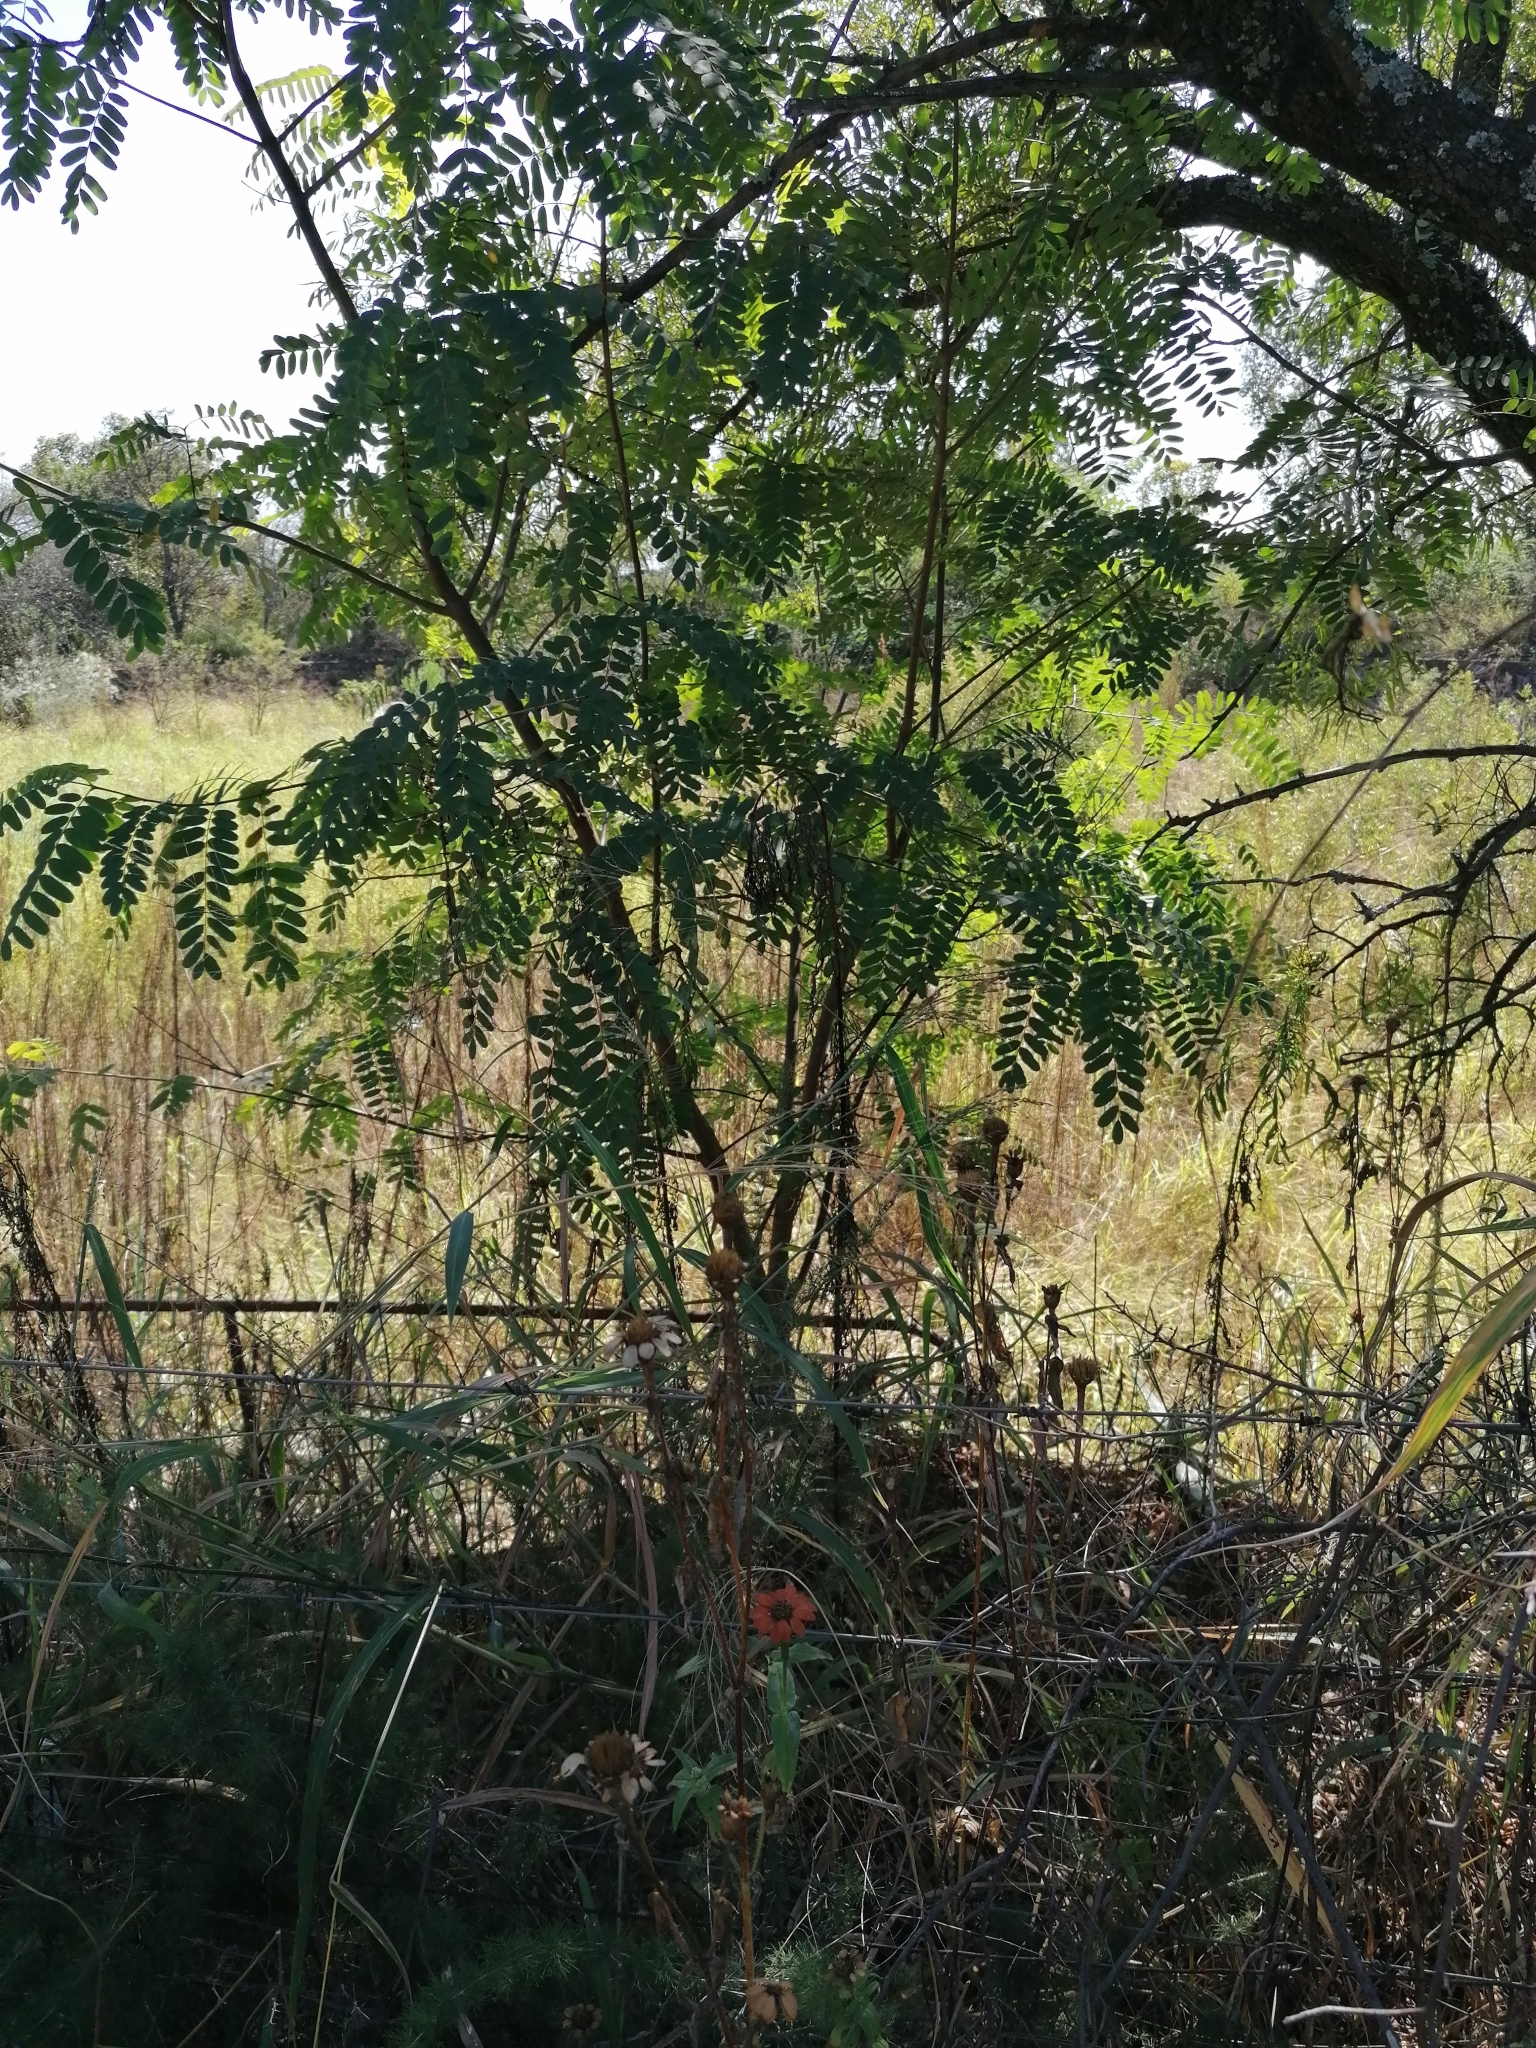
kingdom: Plantae
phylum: Tracheophyta
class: Magnoliopsida
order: Fabales
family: Fabaceae
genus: Tipuana
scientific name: Tipuana tipu
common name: Tiputree
